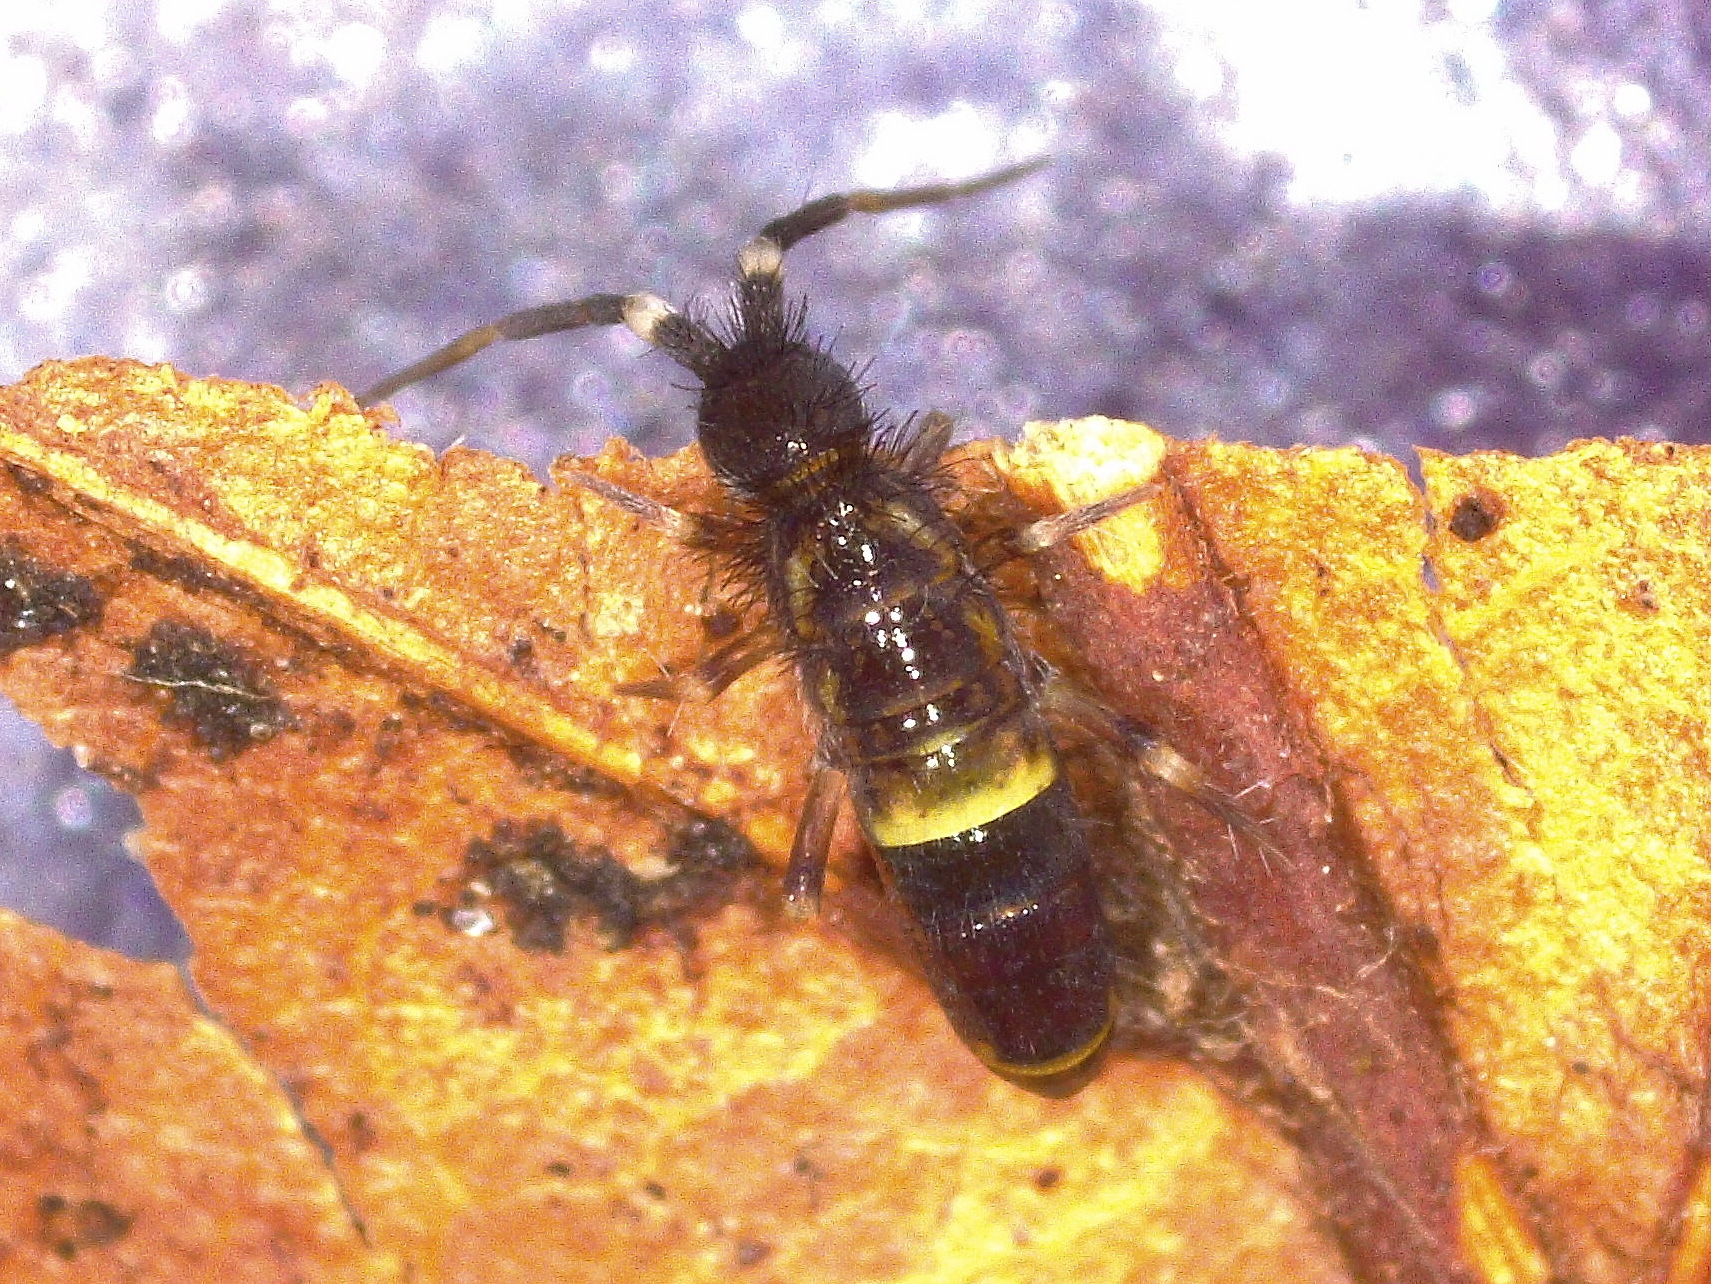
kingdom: Animalia
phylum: Arthropoda
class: Collembola
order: Entomobryomorpha
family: Orchesellidae
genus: Orchesella
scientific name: Orchesella cincta
